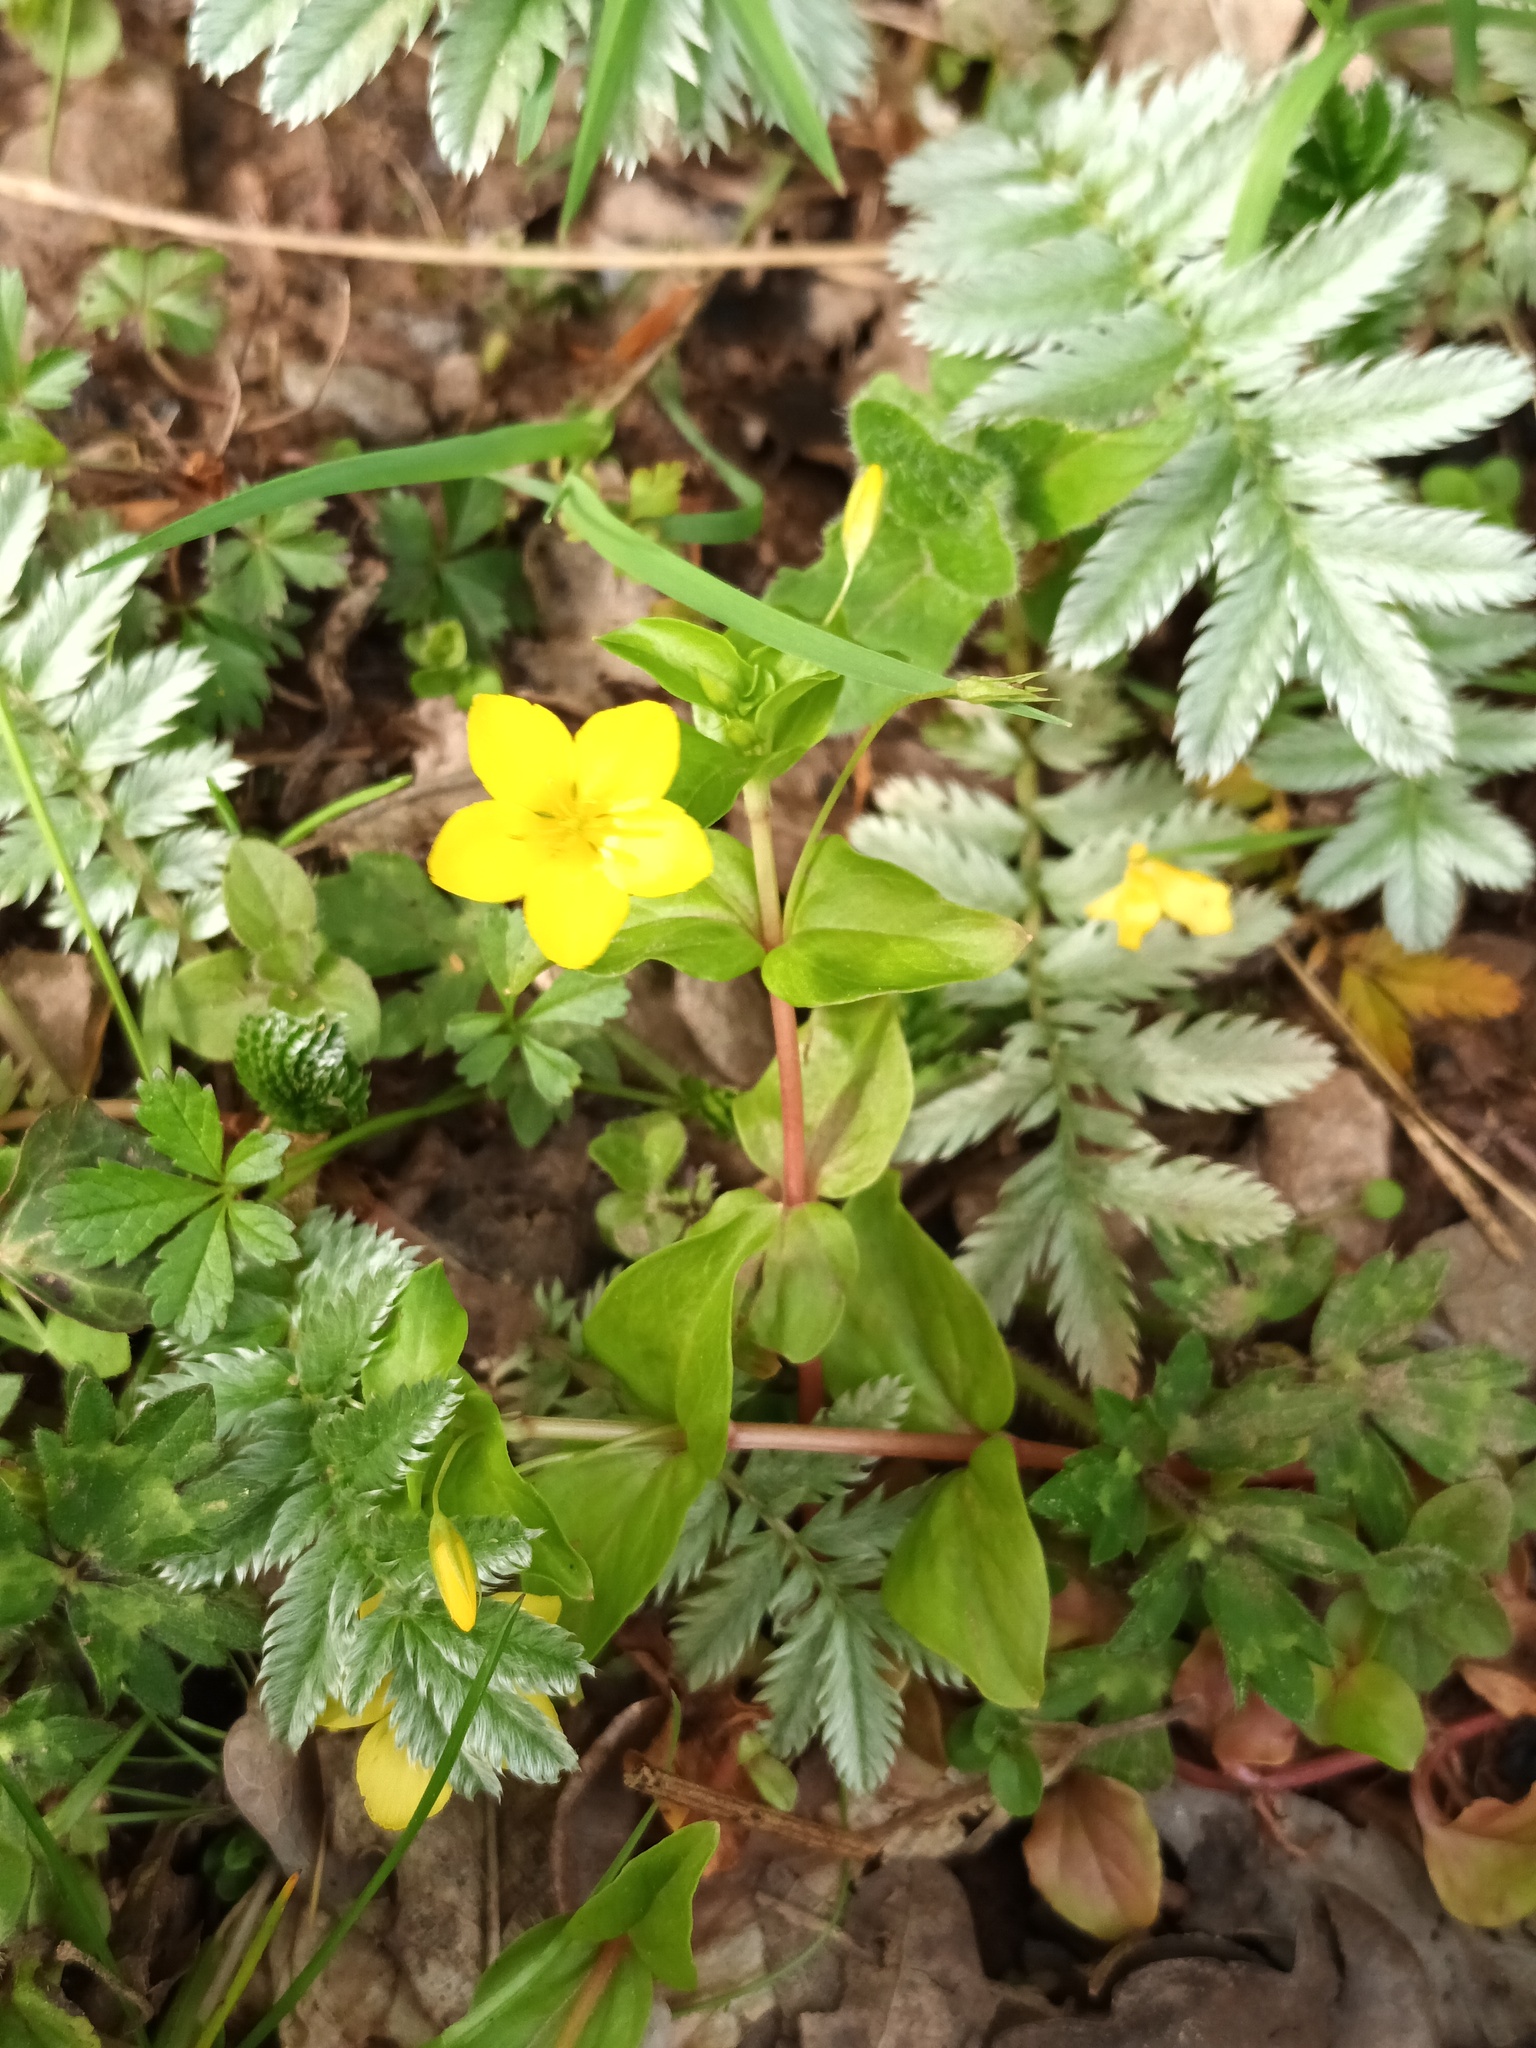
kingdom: Plantae
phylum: Tracheophyta
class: Magnoliopsida
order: Ericales
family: Primulaceae
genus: Lysimachia
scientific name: Lysimachia nemorum
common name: Yellow pimpernel
